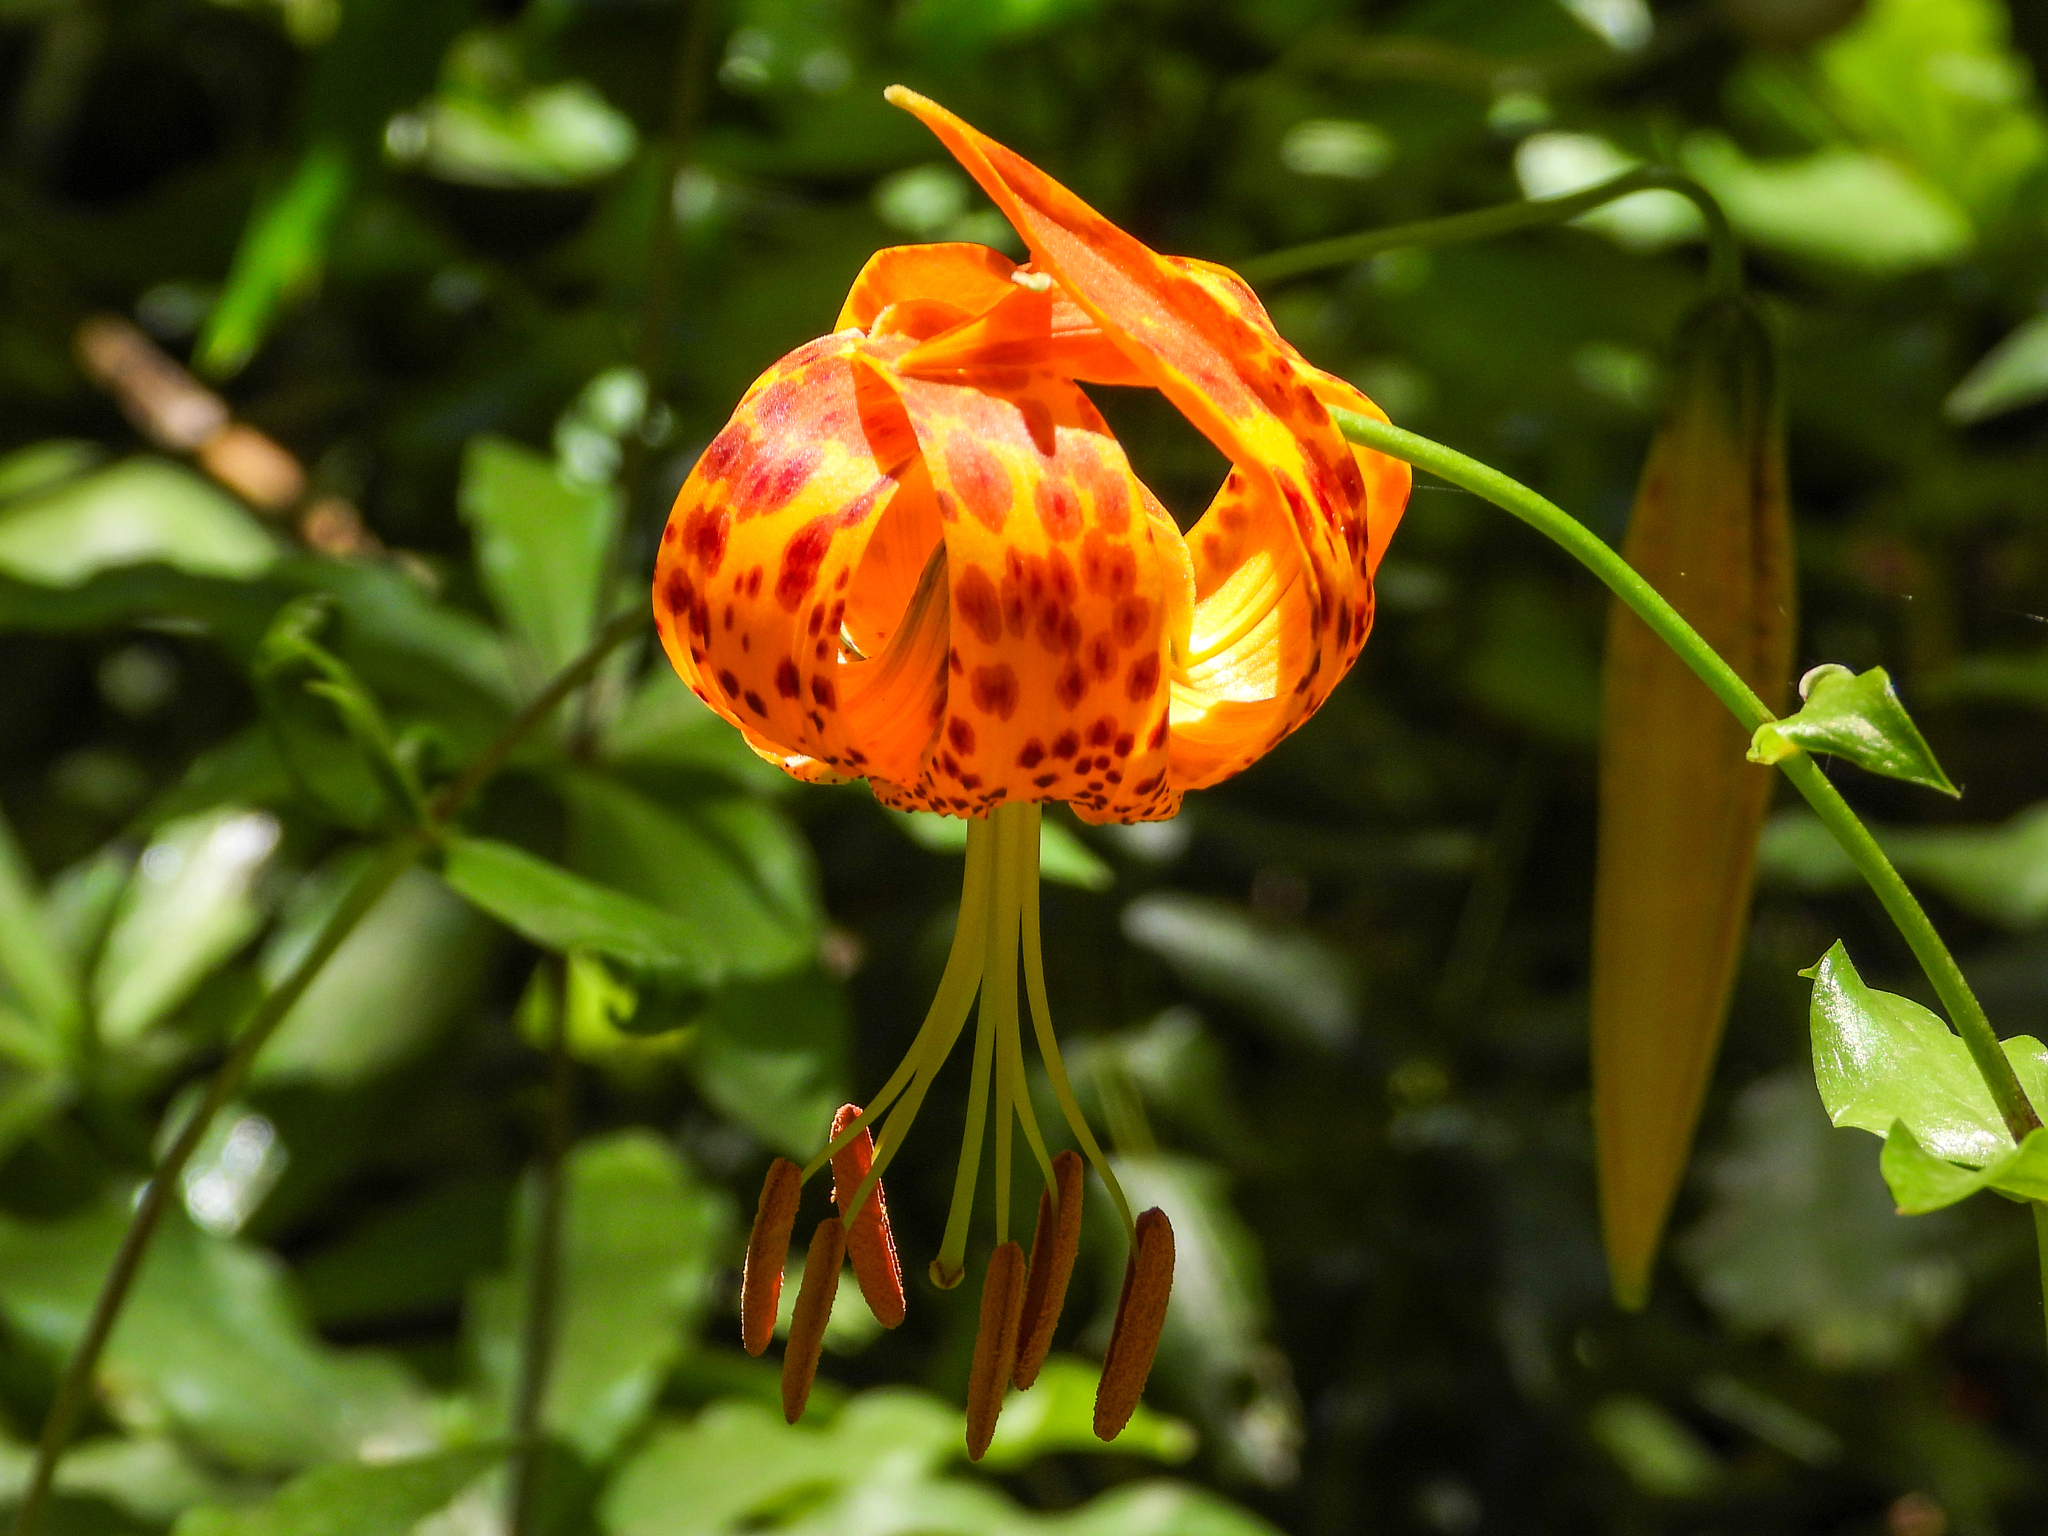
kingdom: Plantae
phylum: Tracheophyta
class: Liliopsida
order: Liliales
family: Liliaceae
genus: Lilium
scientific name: Lilium humboldtii
